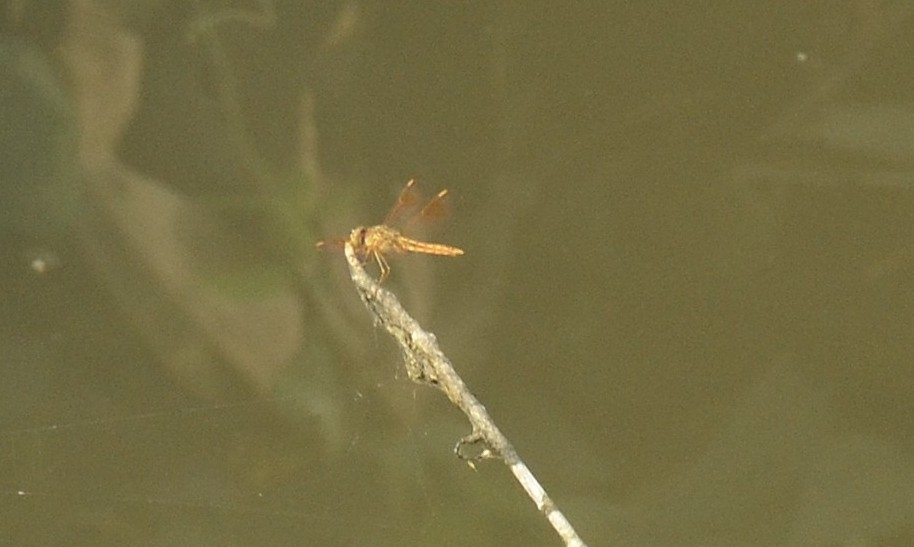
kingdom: Animalia
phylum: Arthropoda
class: Insecta
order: Odonata
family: Libellulidae
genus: Brachythemis
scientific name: Brachythemis contaminata
